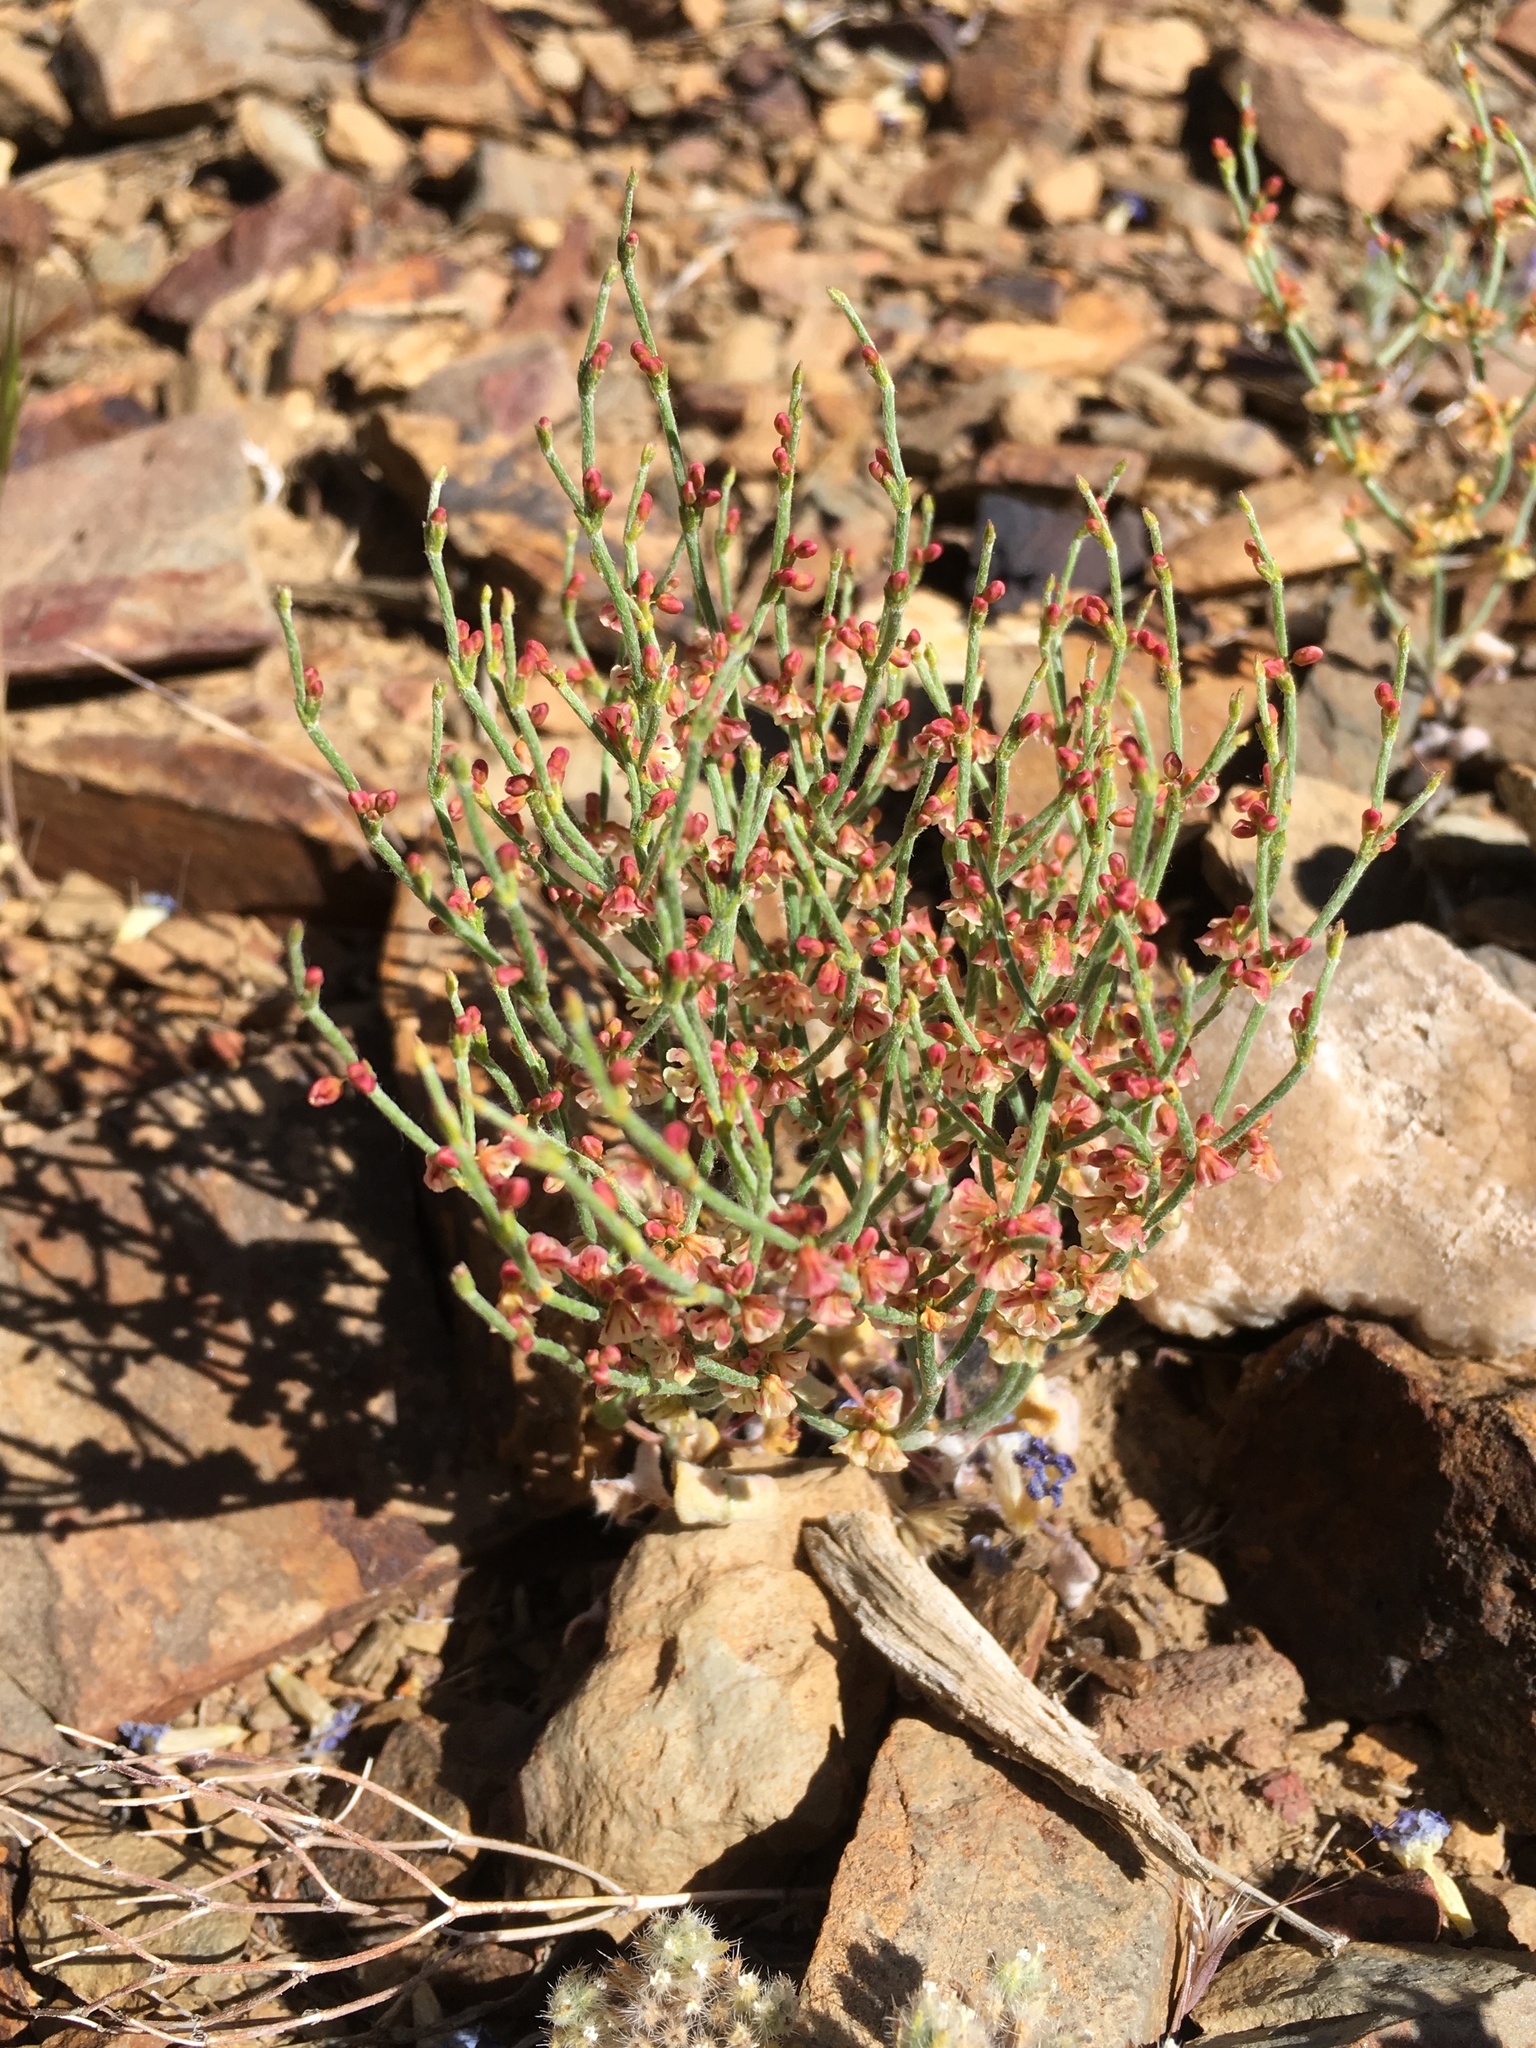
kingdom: Plantae
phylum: Tracheophyta
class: Magnoliopsida
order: Caryophyllales
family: Polygonaceae
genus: Eriogonum
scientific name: Eriogonum nidularium
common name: Bird's-nest wild buckwheat
